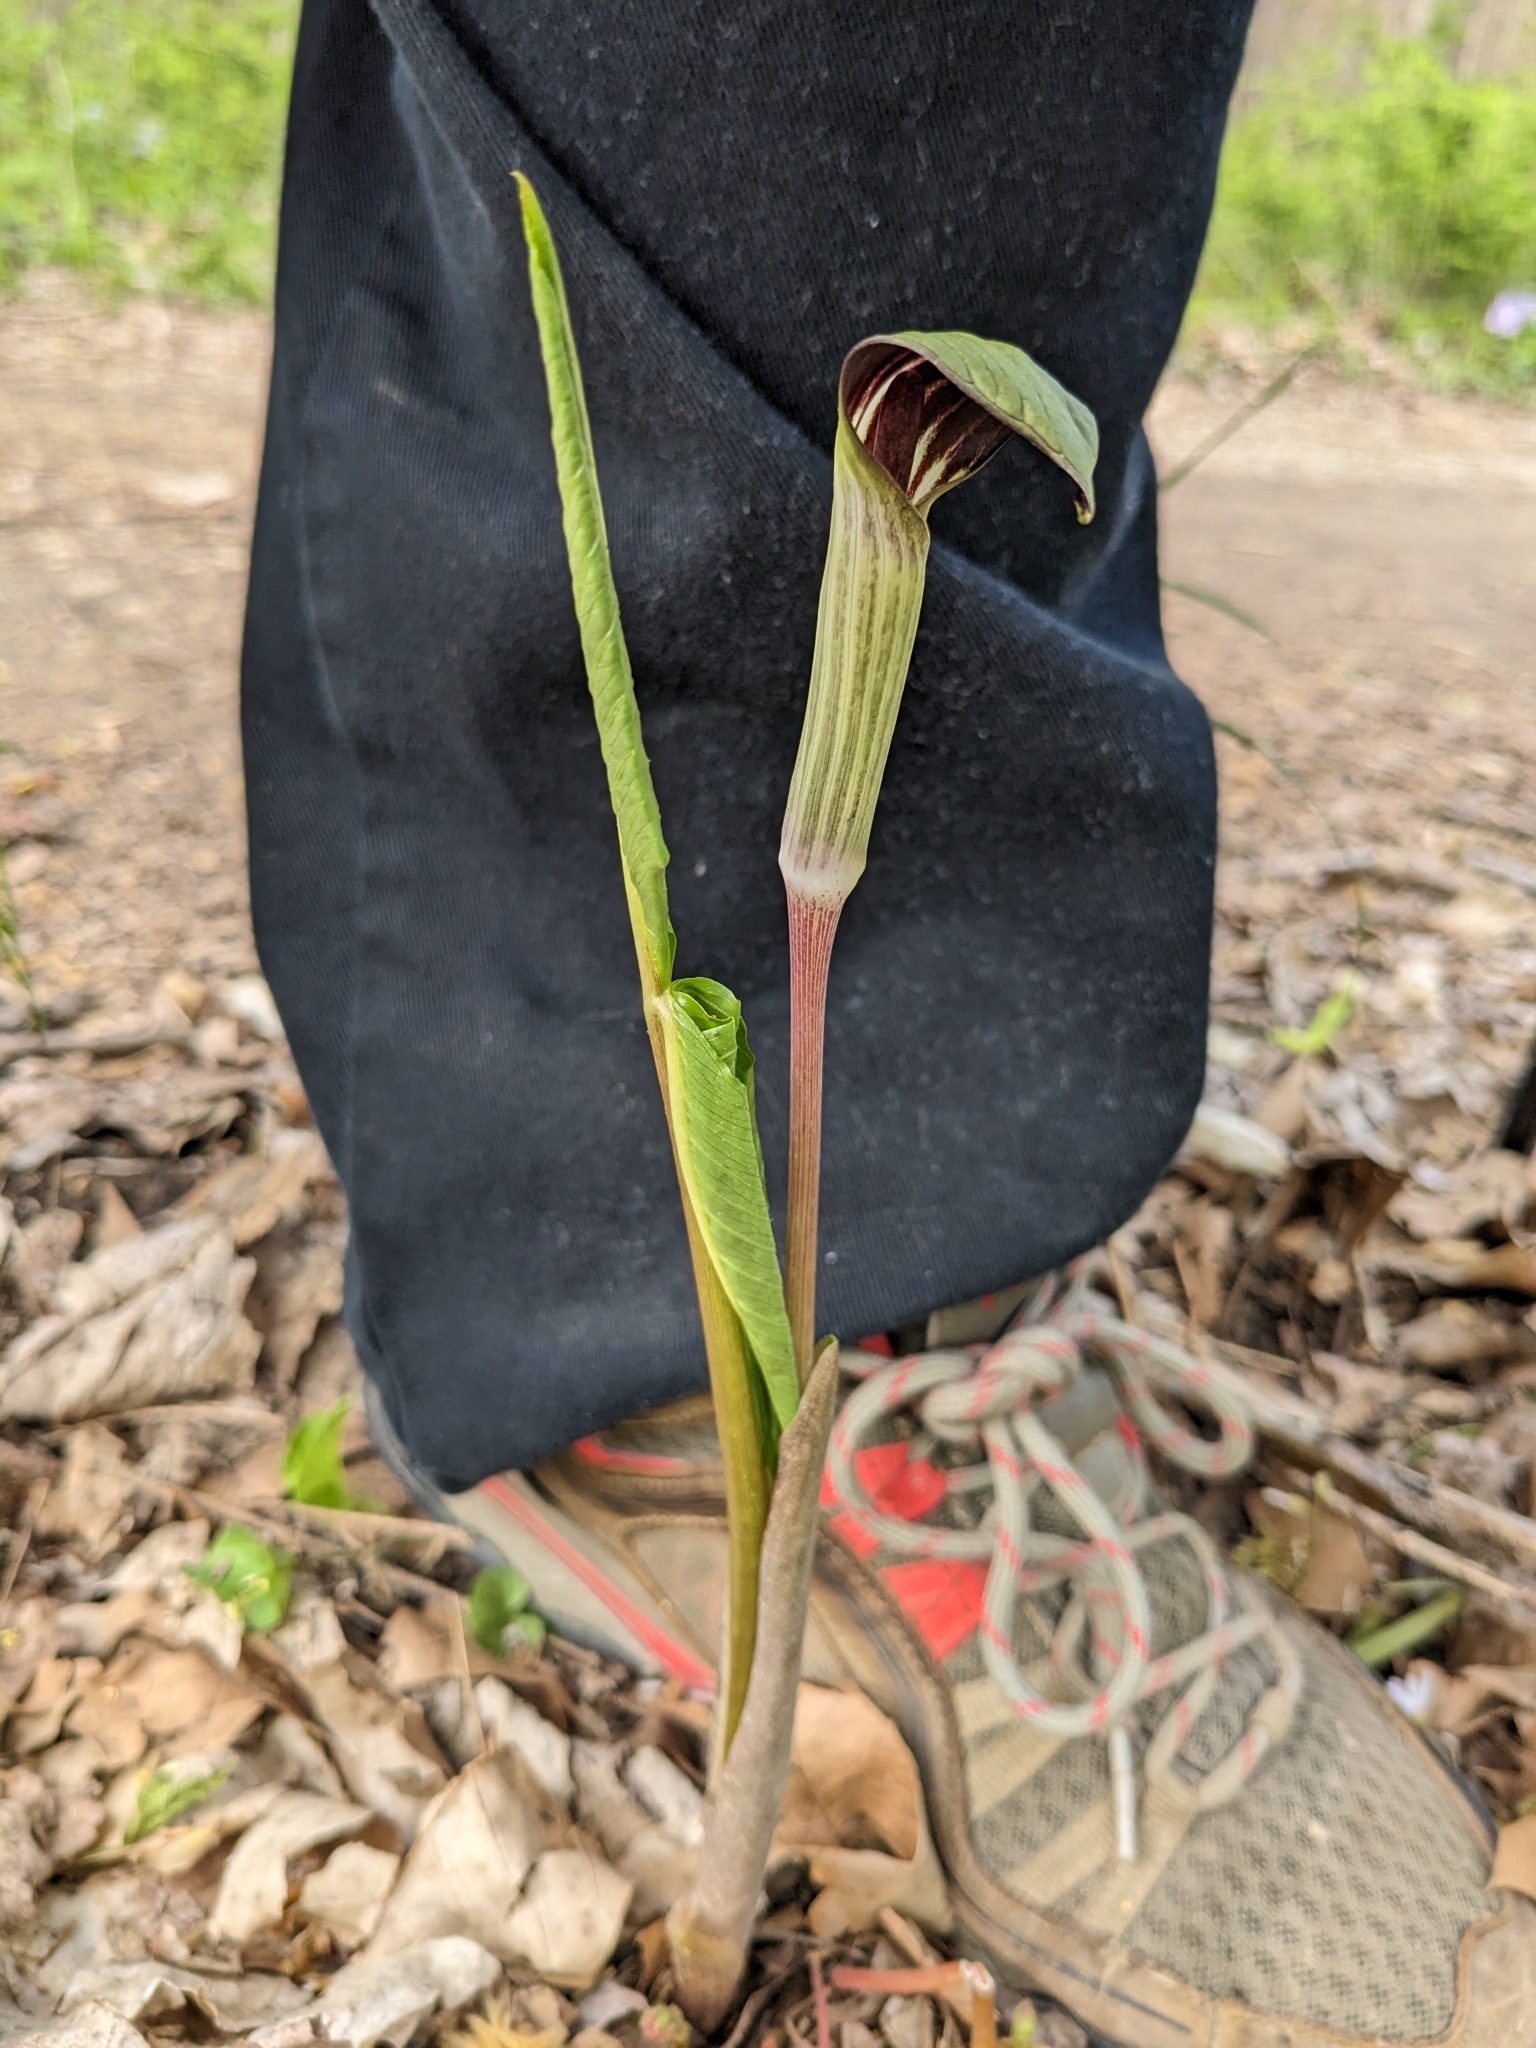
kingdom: Plantae
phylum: Tracheophyta
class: Liliopsida
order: Alismatales
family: Araceae
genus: Arisaema
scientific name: Arisaema triphyllum
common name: Jack-in-the-pulpit
